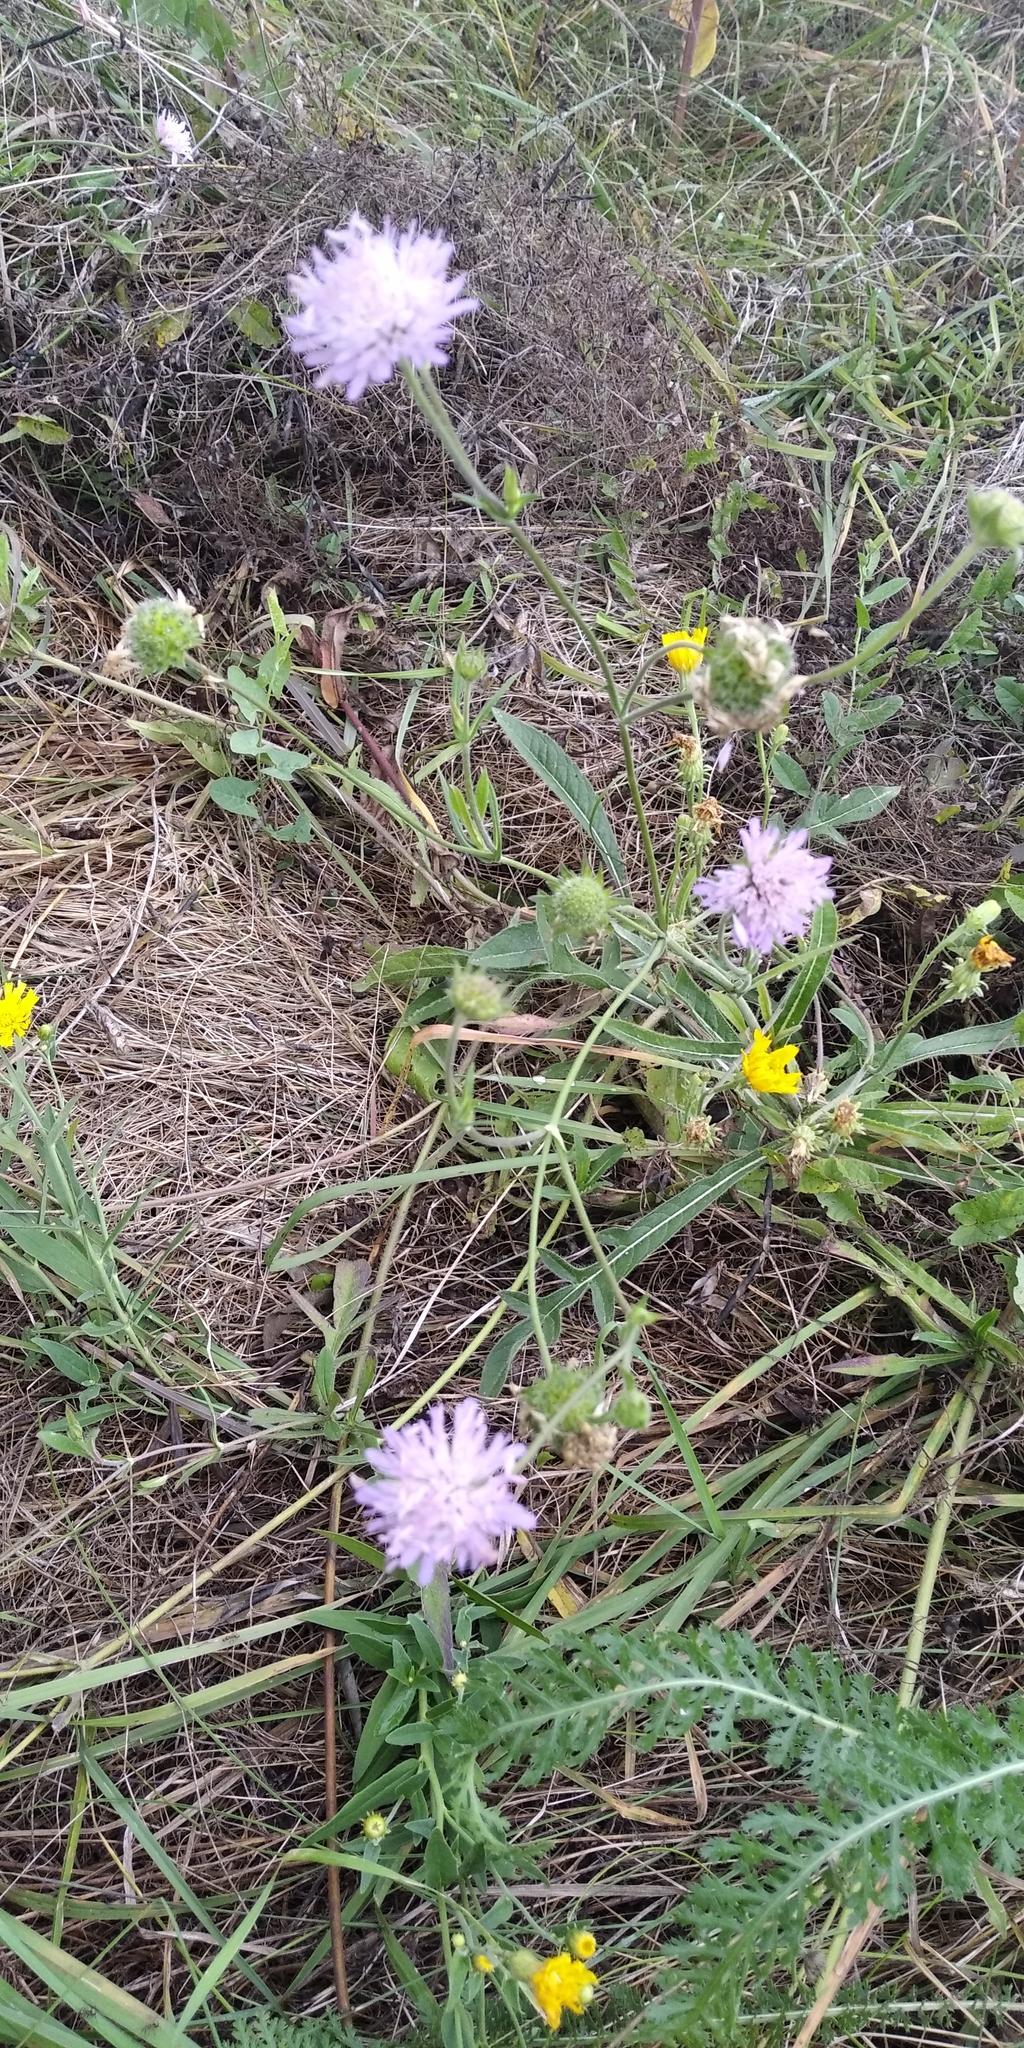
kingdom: Plantae
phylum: Tracheophyta
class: Magnoliopsida
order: Dipsacales
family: Caprifoliaceae
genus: Knautia
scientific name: Knautia arvensis
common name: Field scabiosa
